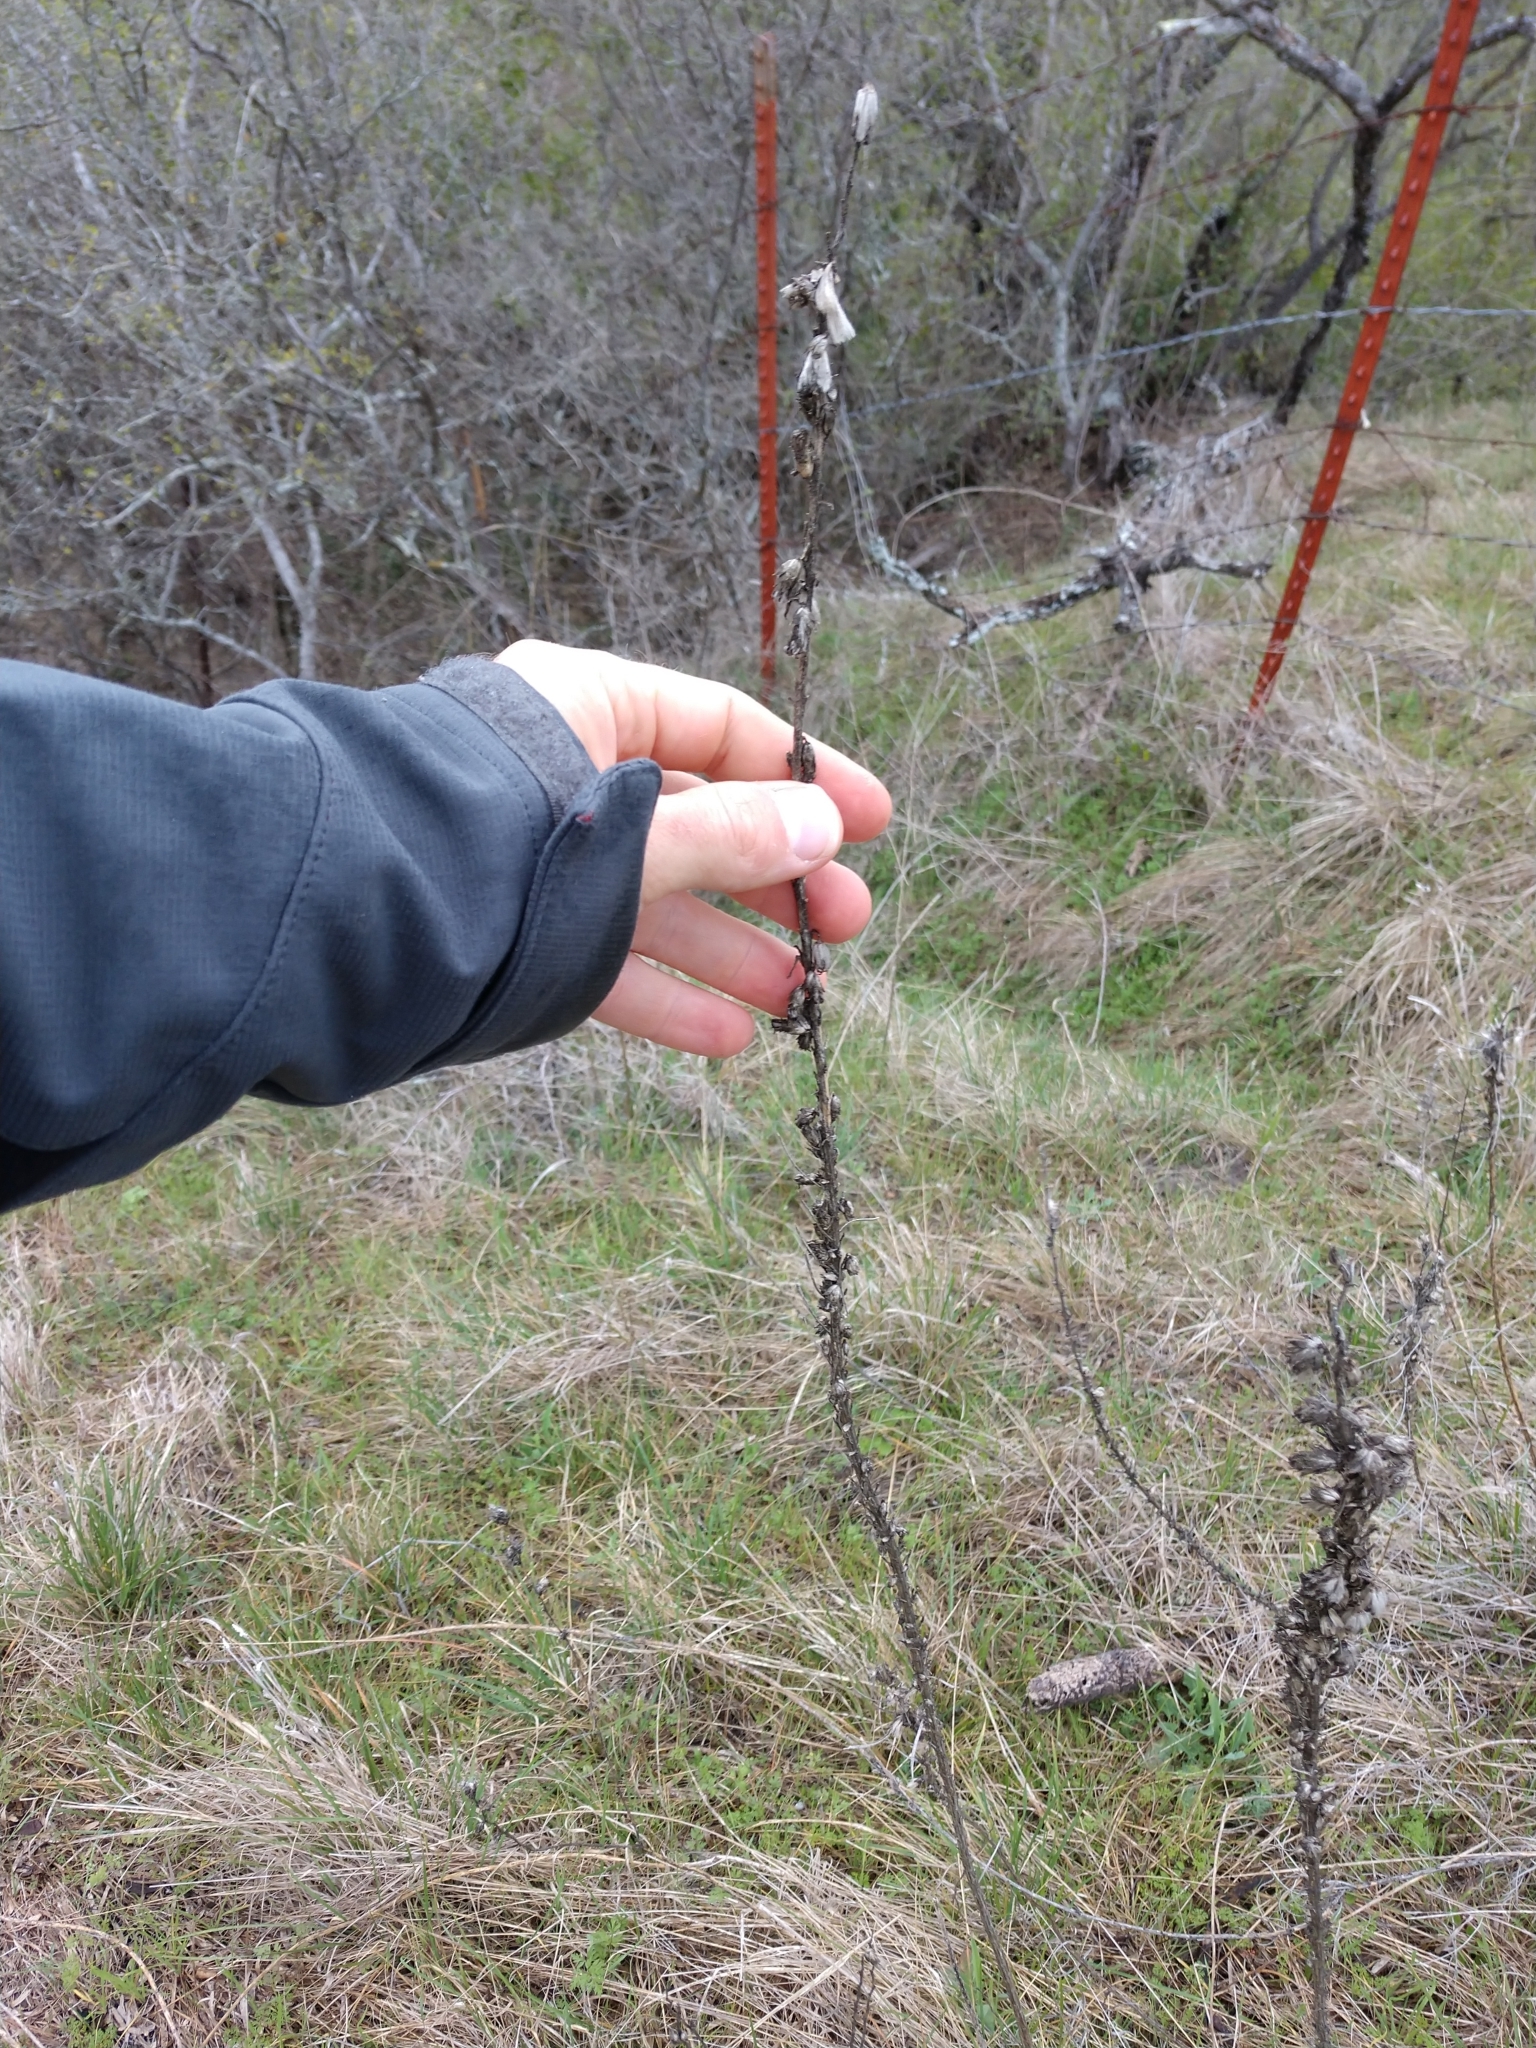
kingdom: Plantae
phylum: Tracheophyta
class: Magnoliopsida
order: Asterales
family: Asteraceae
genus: Liatris
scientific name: Liatris punctata
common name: Dotted gayfeather
